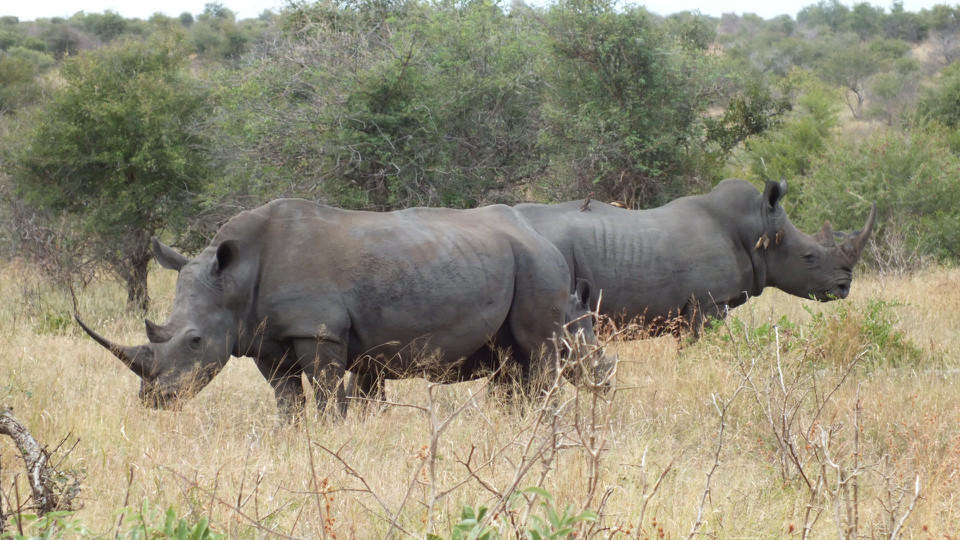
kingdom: Animalia
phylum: Chordata
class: Mammalia
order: Perissodactyla
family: Rhinocerotidae
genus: Ceratotherium
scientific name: Ceratotherium simum
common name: White rhinoceros
